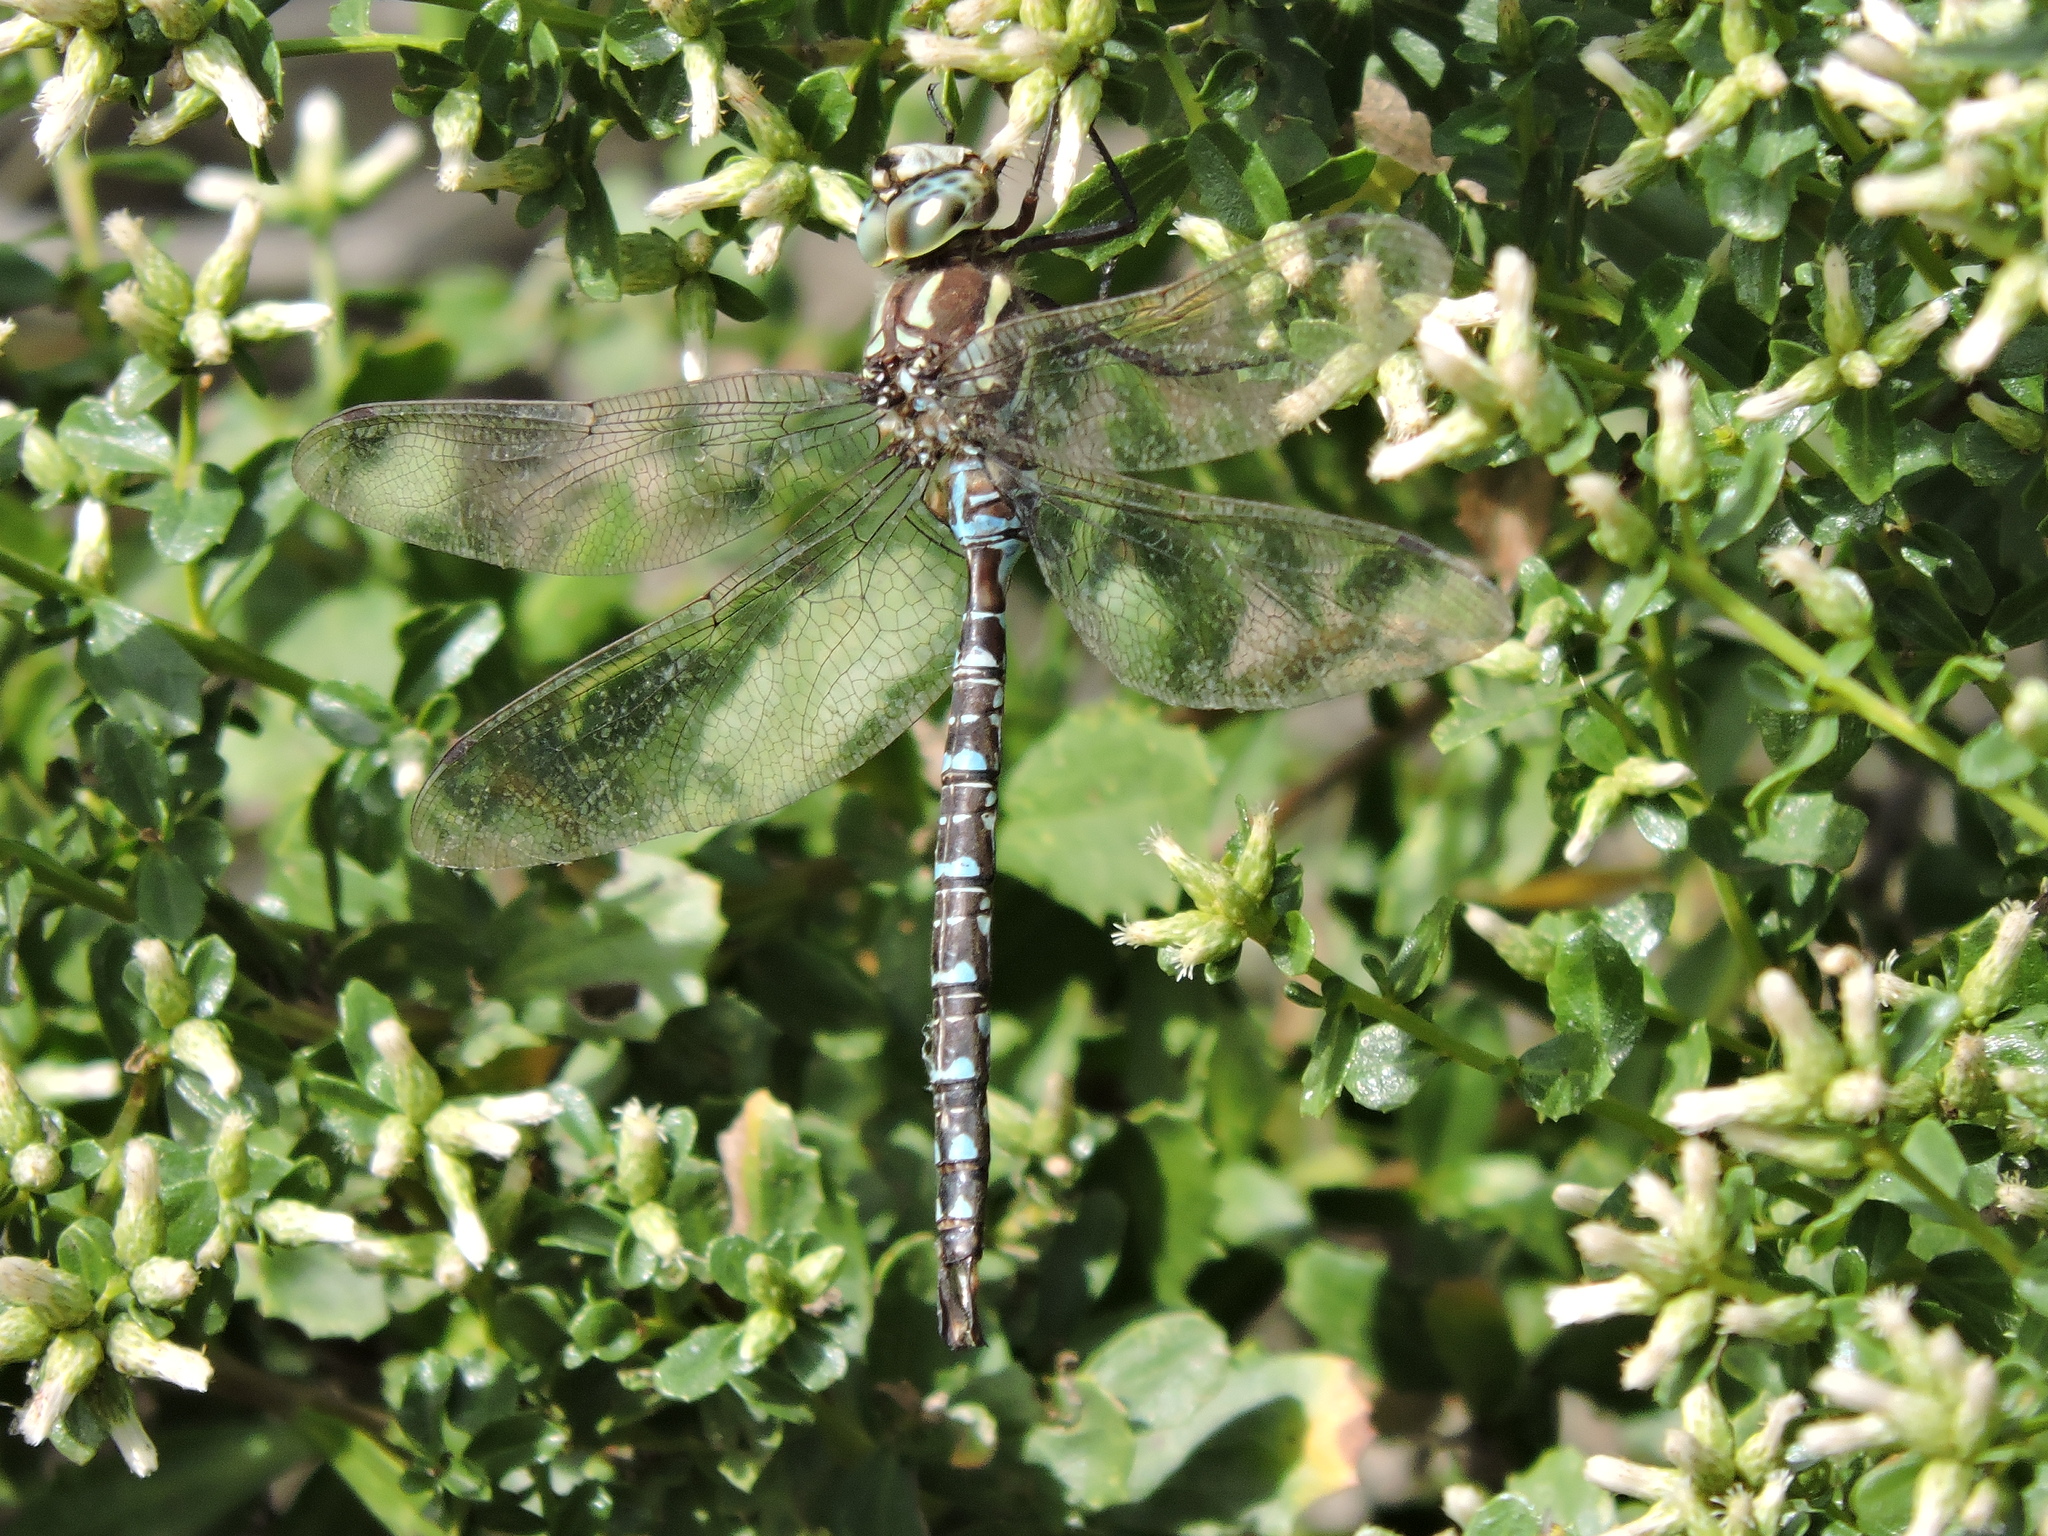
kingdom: Animalia
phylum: Arthropoda
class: Insecta
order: Odonata
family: Aeshnidae
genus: Aeshna
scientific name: Aeshna umbrosa
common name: Shadow darner
